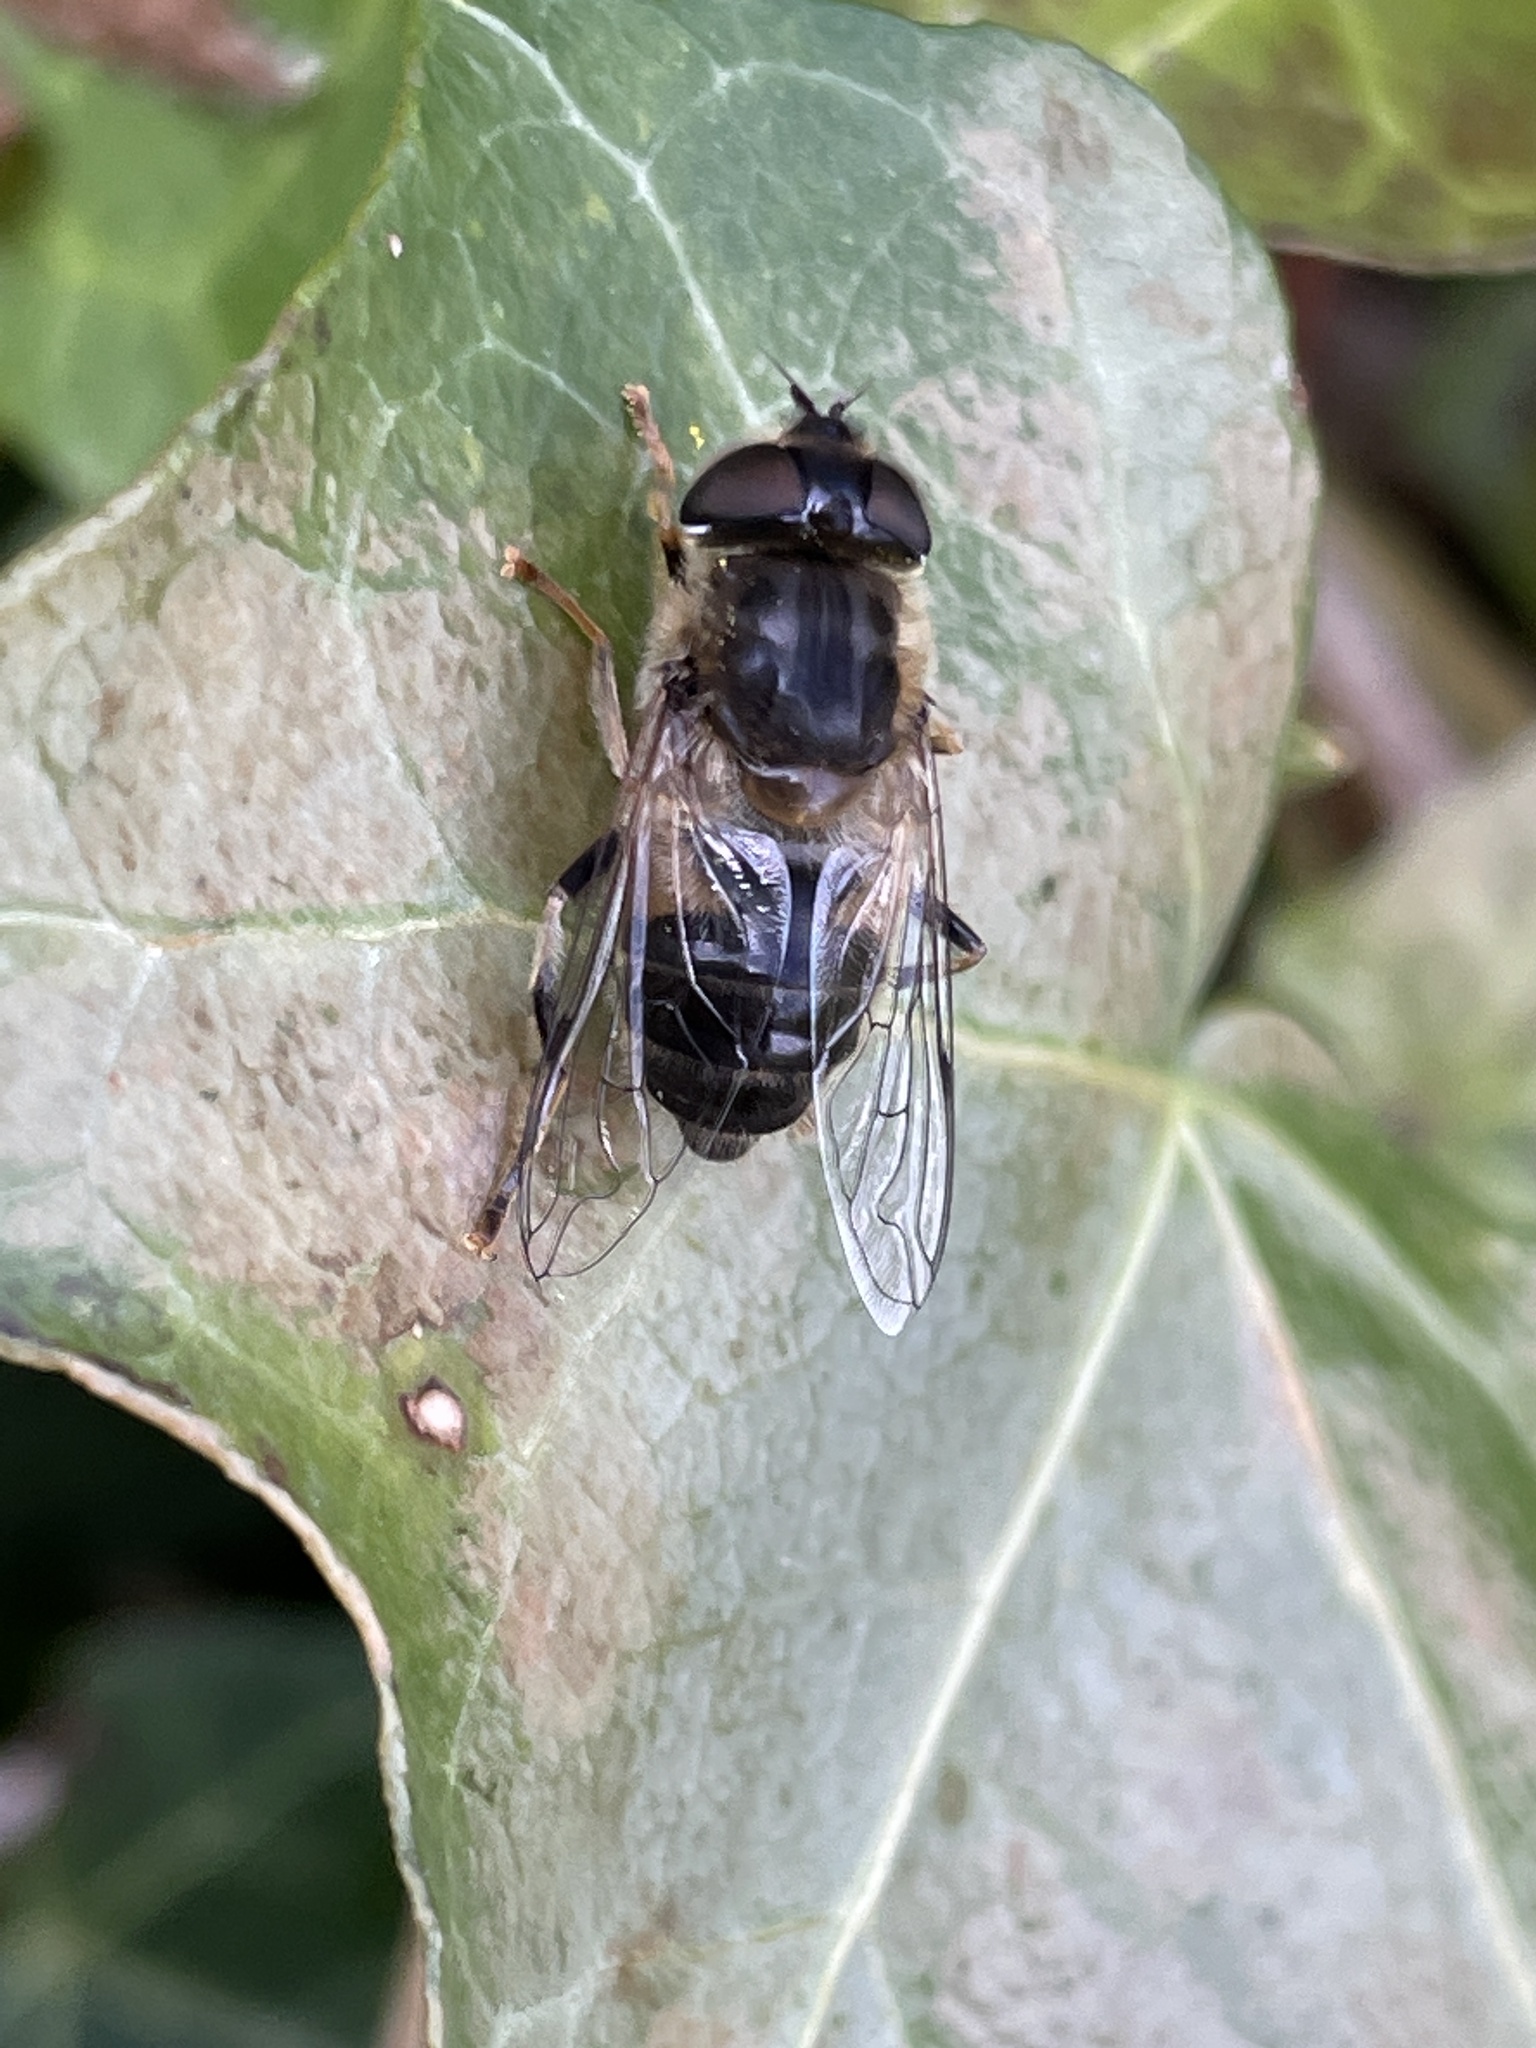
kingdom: Animalia
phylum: Arthropoda
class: Insecta
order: Diptera
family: Syrphidae
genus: Eristalis
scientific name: Eristalis pertinax
